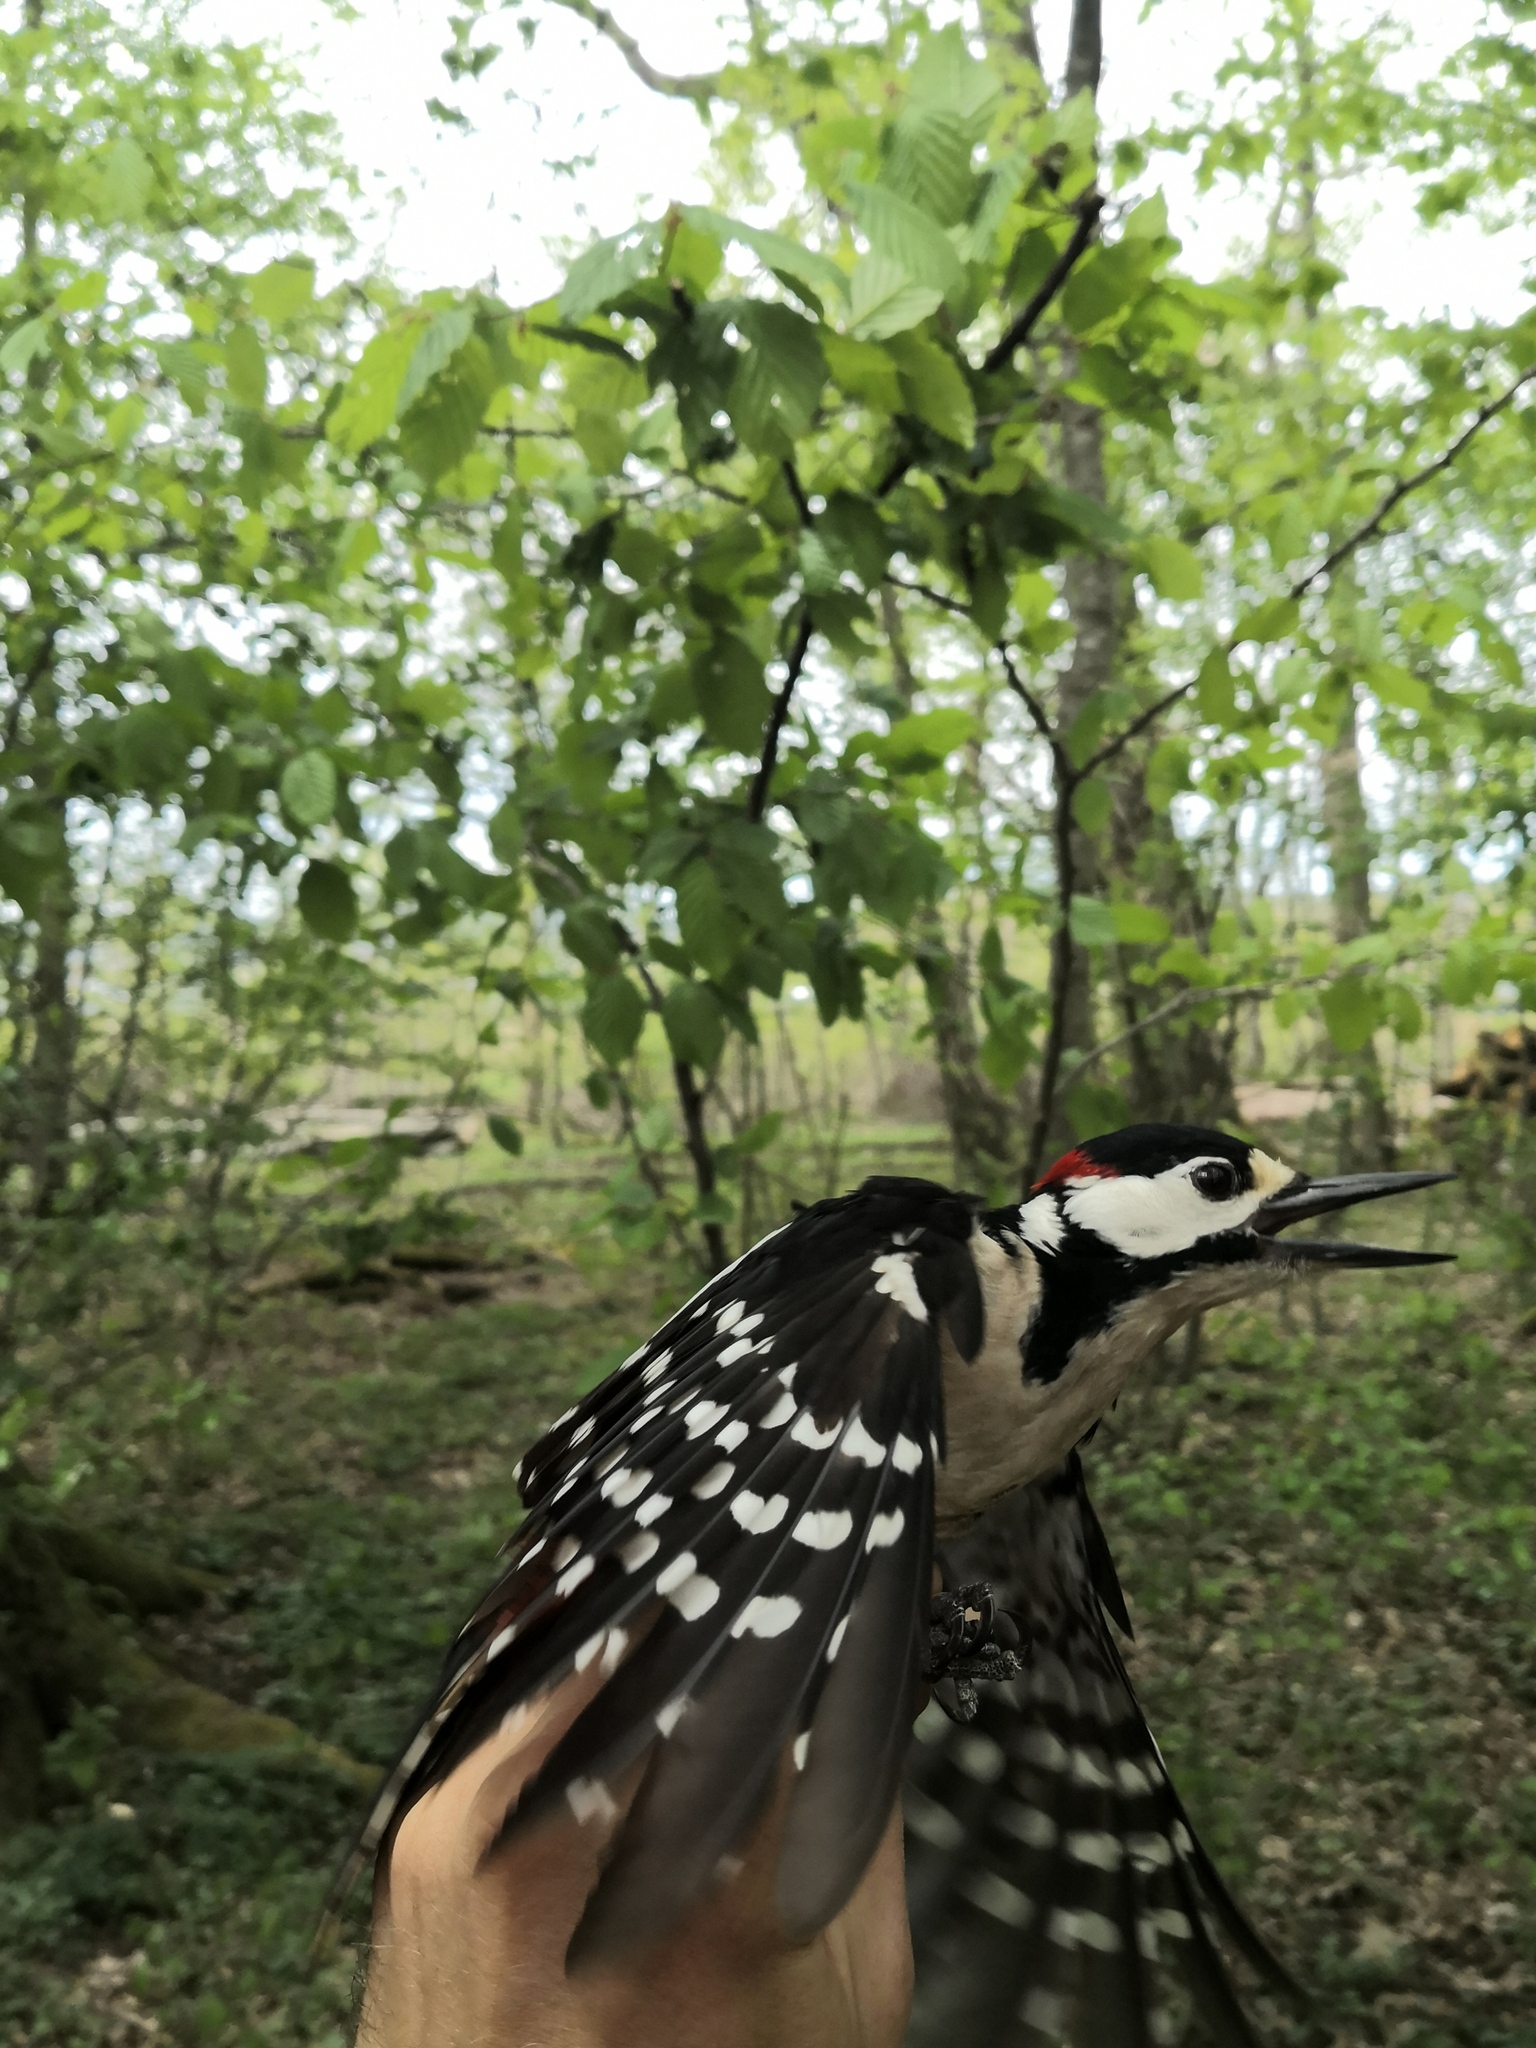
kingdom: Animalia
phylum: Chordata
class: Aves
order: Piciformes
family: Picidae
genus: Dendrocopos
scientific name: Dendrocopos major
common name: Great spotted woodpecker
